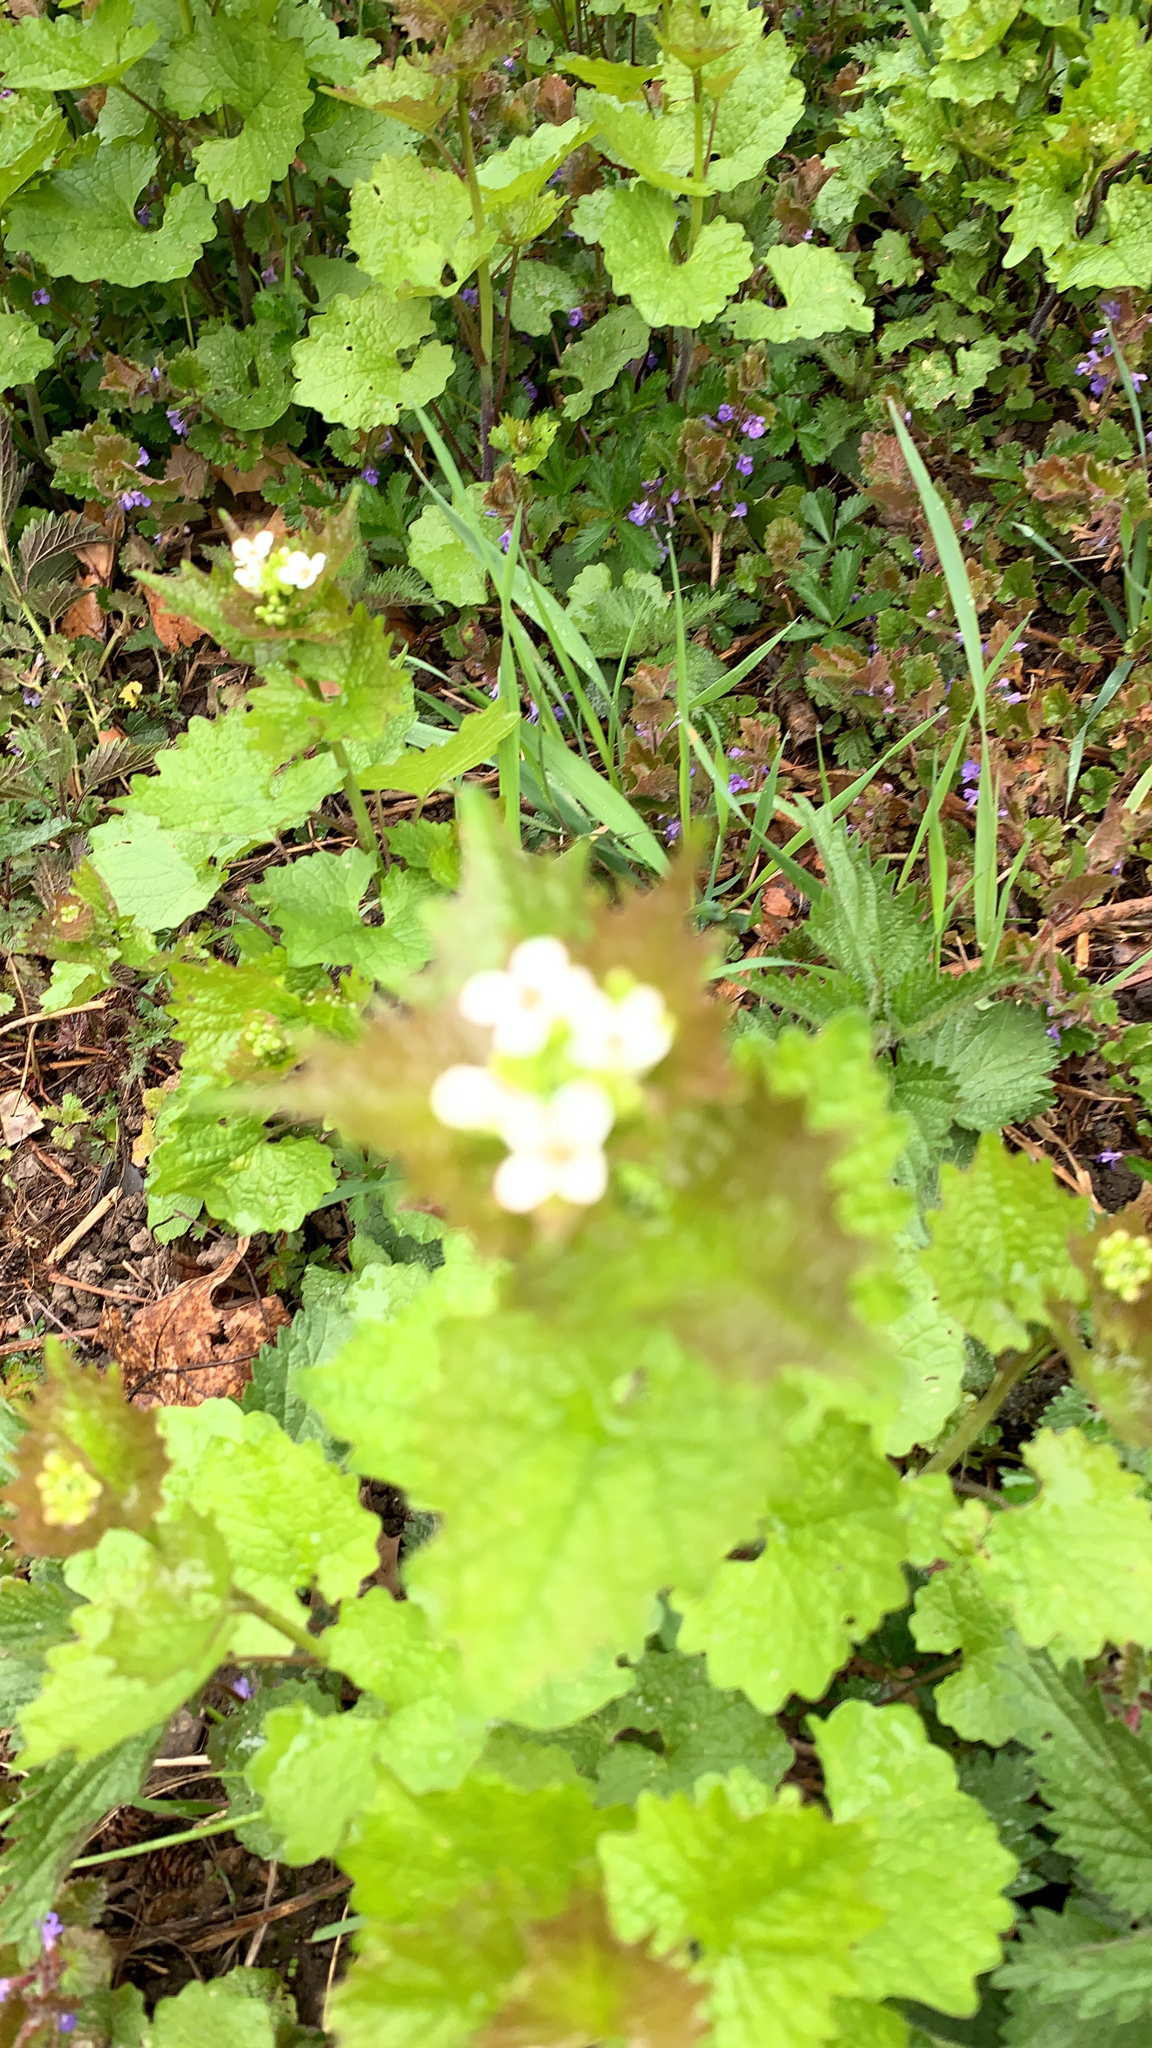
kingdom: Plantae
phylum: Tracheophyta
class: Magnoliopsida
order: Brassicales
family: Brassicaceae
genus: Alliaria
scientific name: Alliaria petiolata
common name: Garlic mustard
